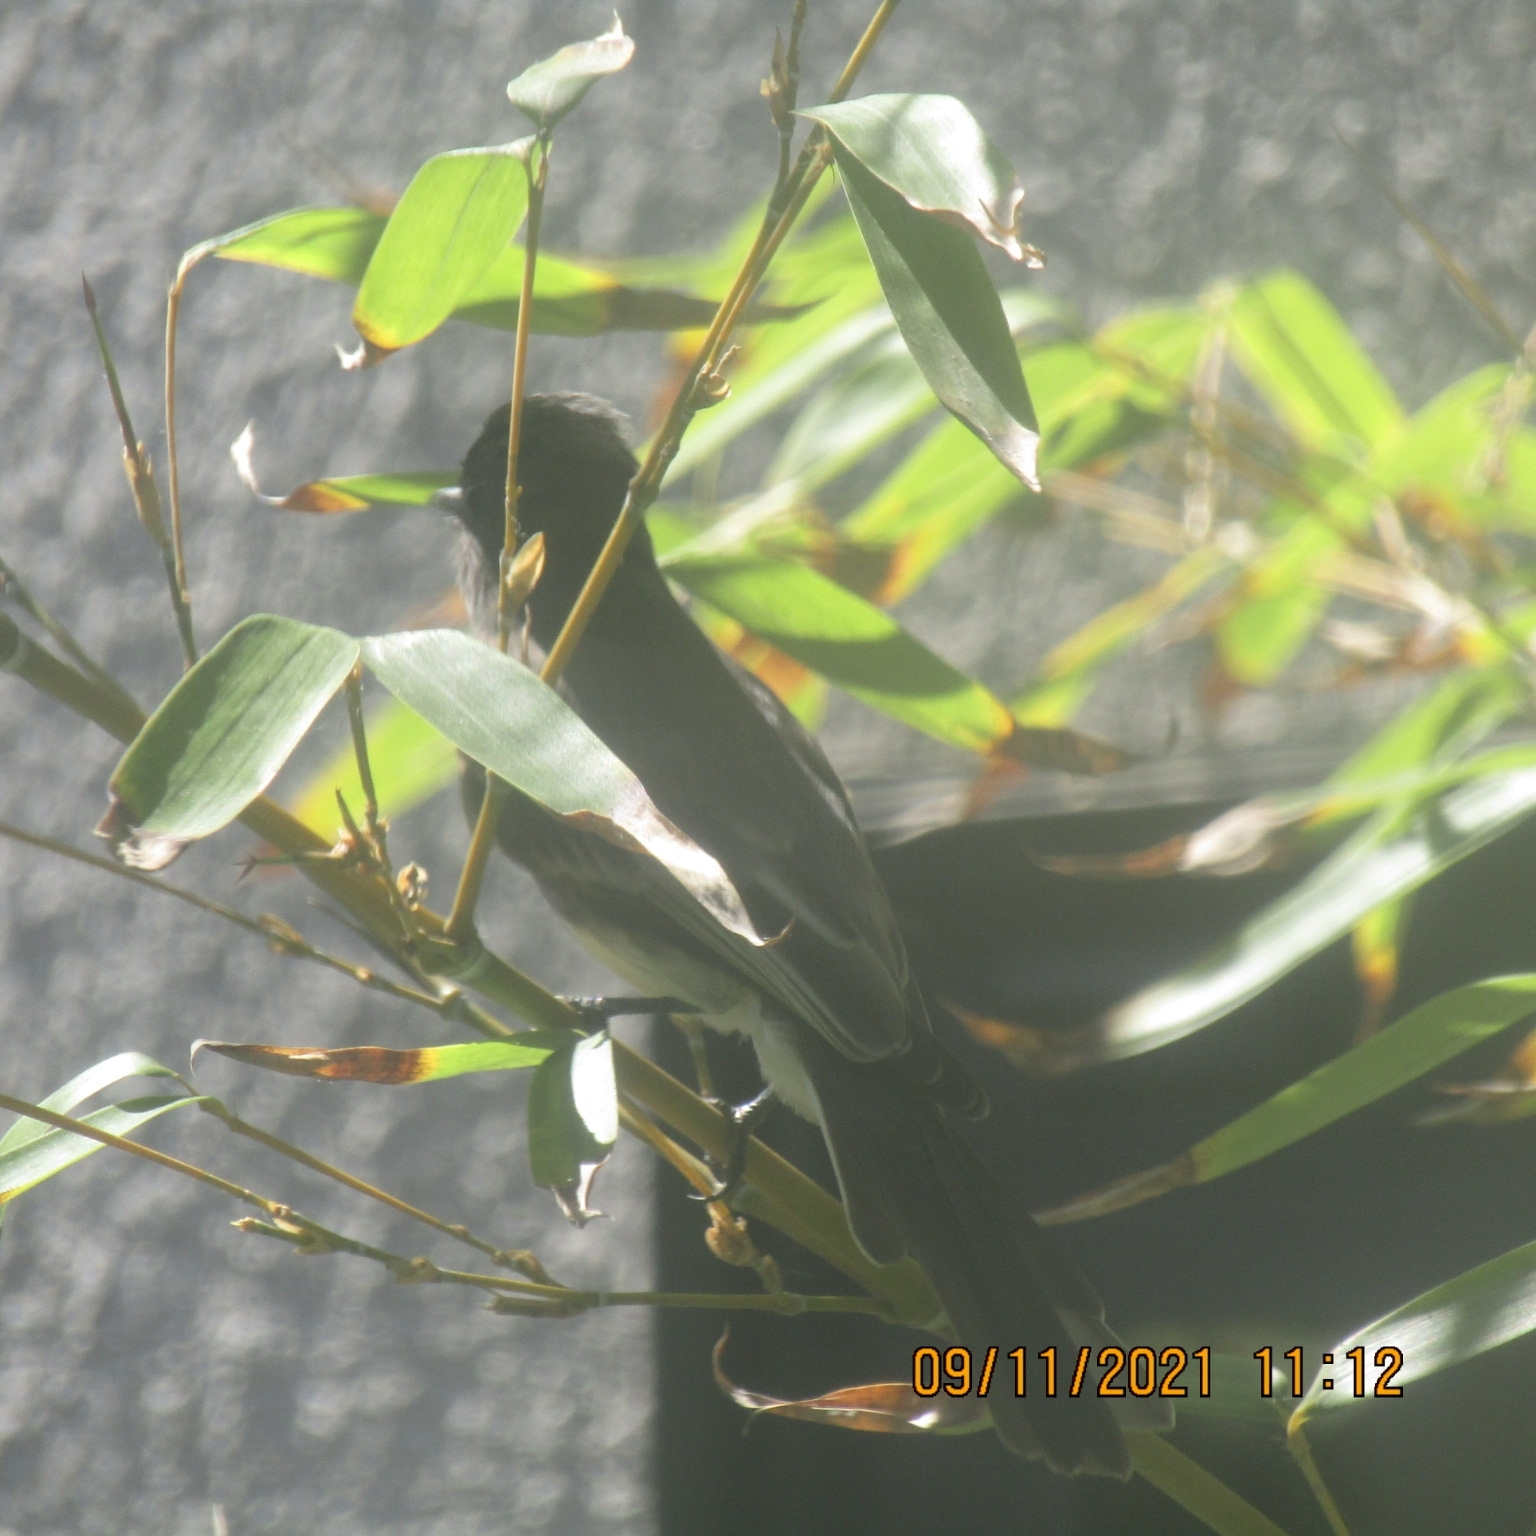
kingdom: Animalia
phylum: Chordata
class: Aves
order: Passeriformes
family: Tyrannidae
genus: Sayornis
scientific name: Sayornis nigricans
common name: Black phoebe
